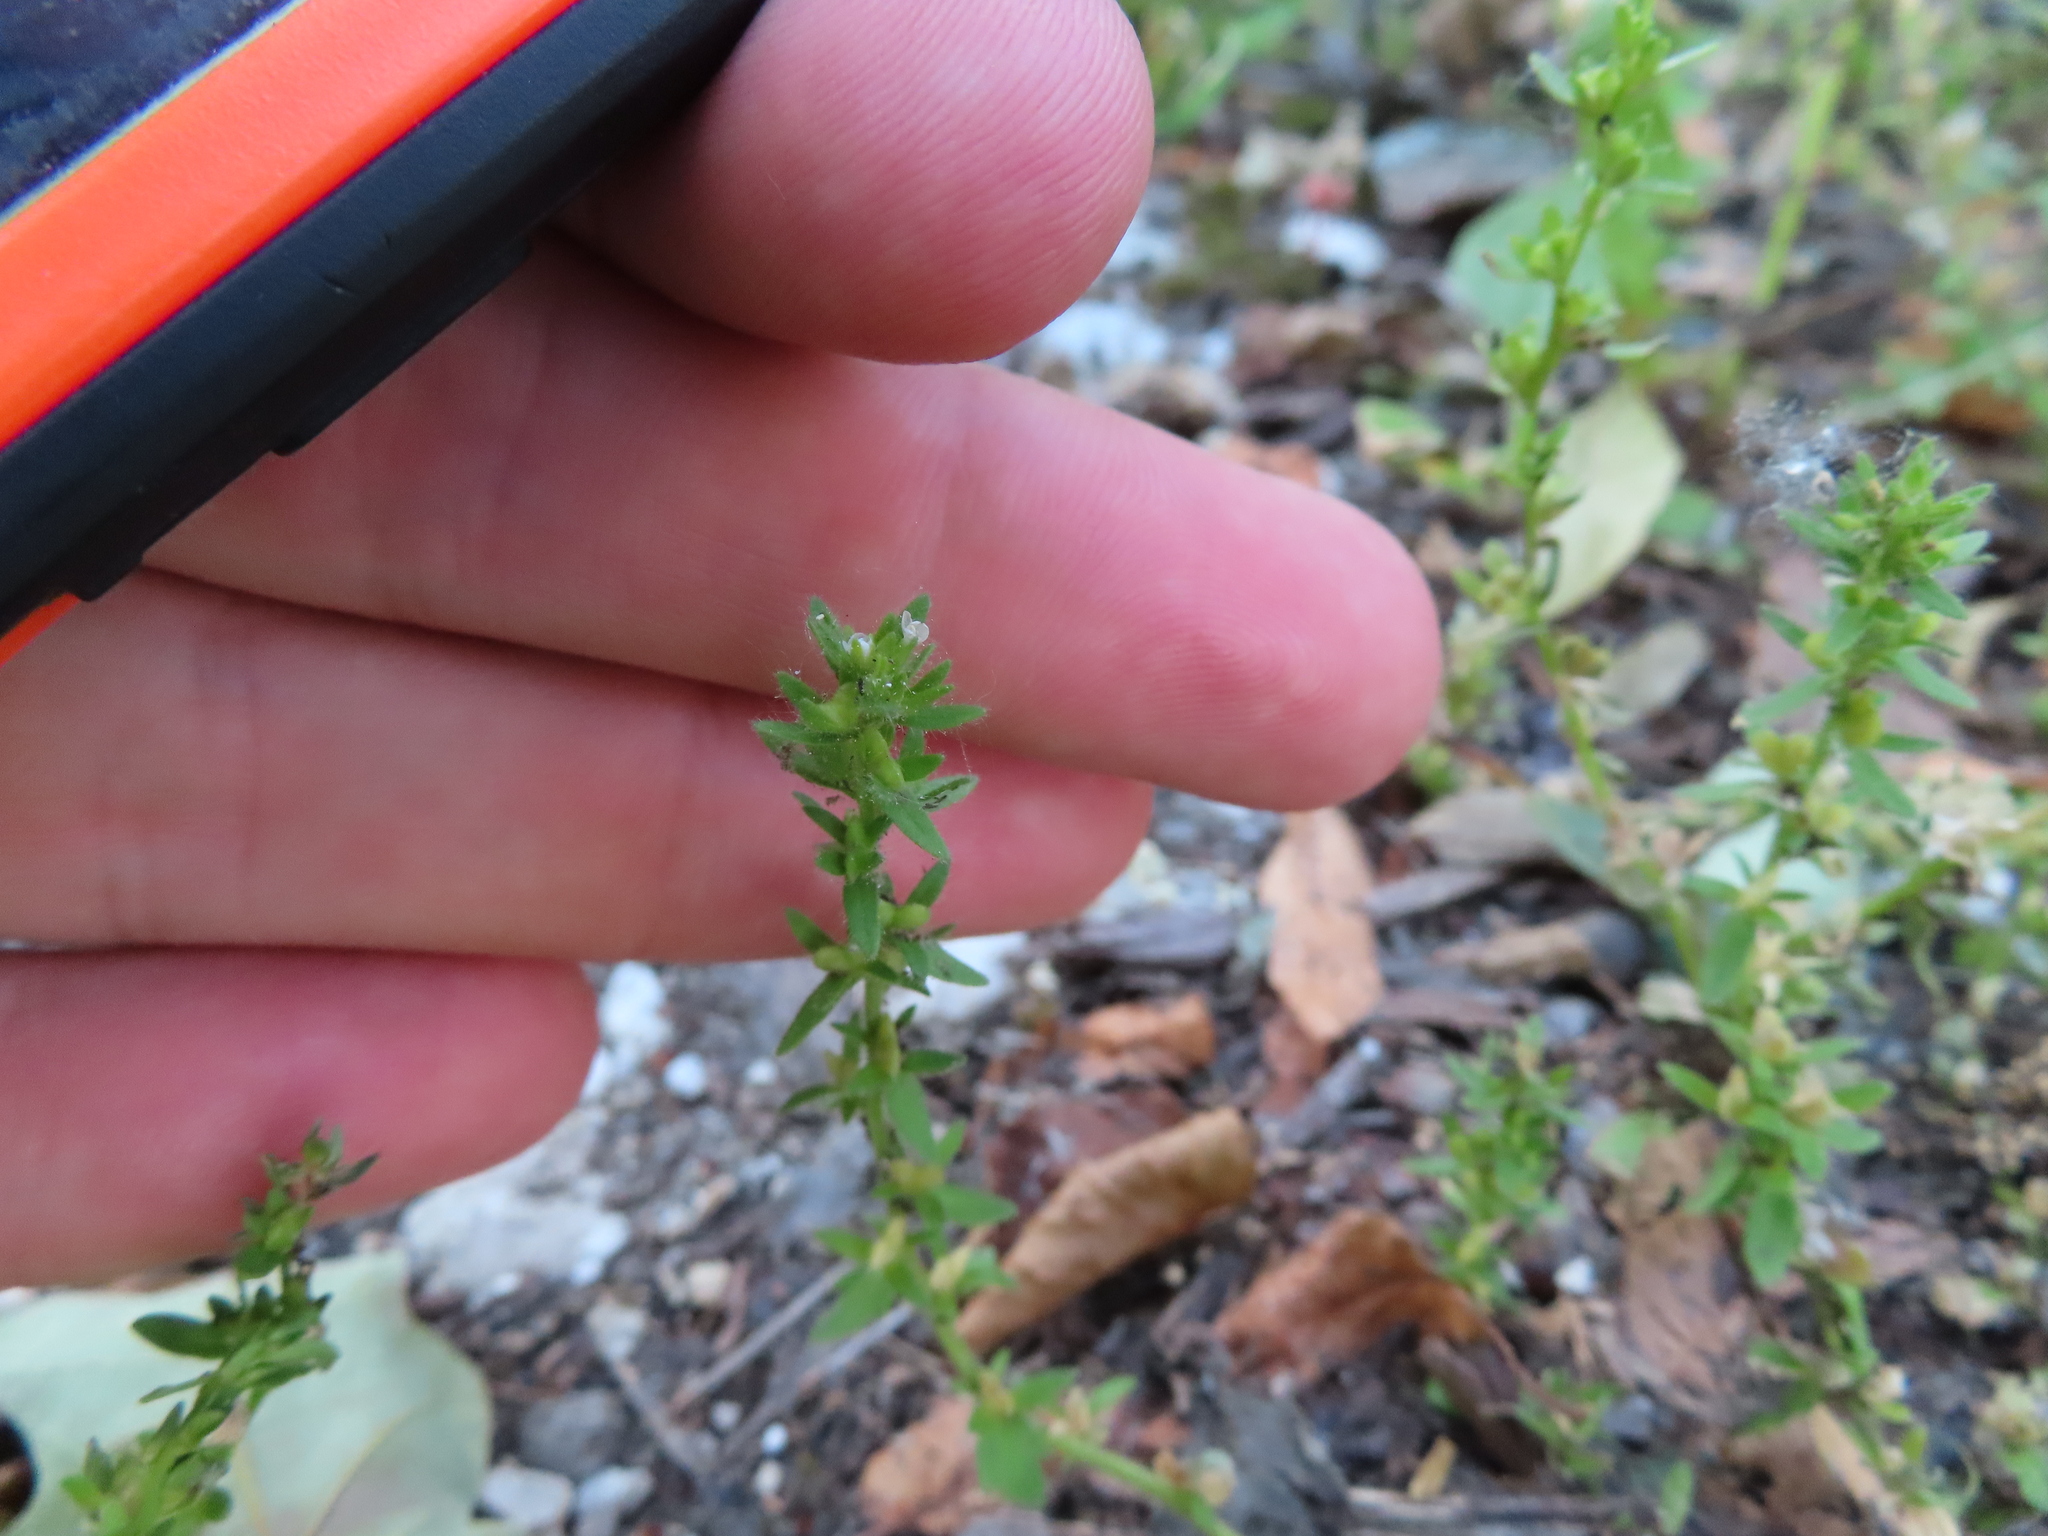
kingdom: Plantae
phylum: Tracheophyta
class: Magnoliopsida
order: Lamiales
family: Plantaginaceae
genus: Veronica
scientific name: Veronica arvensis
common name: Corn speedwell
